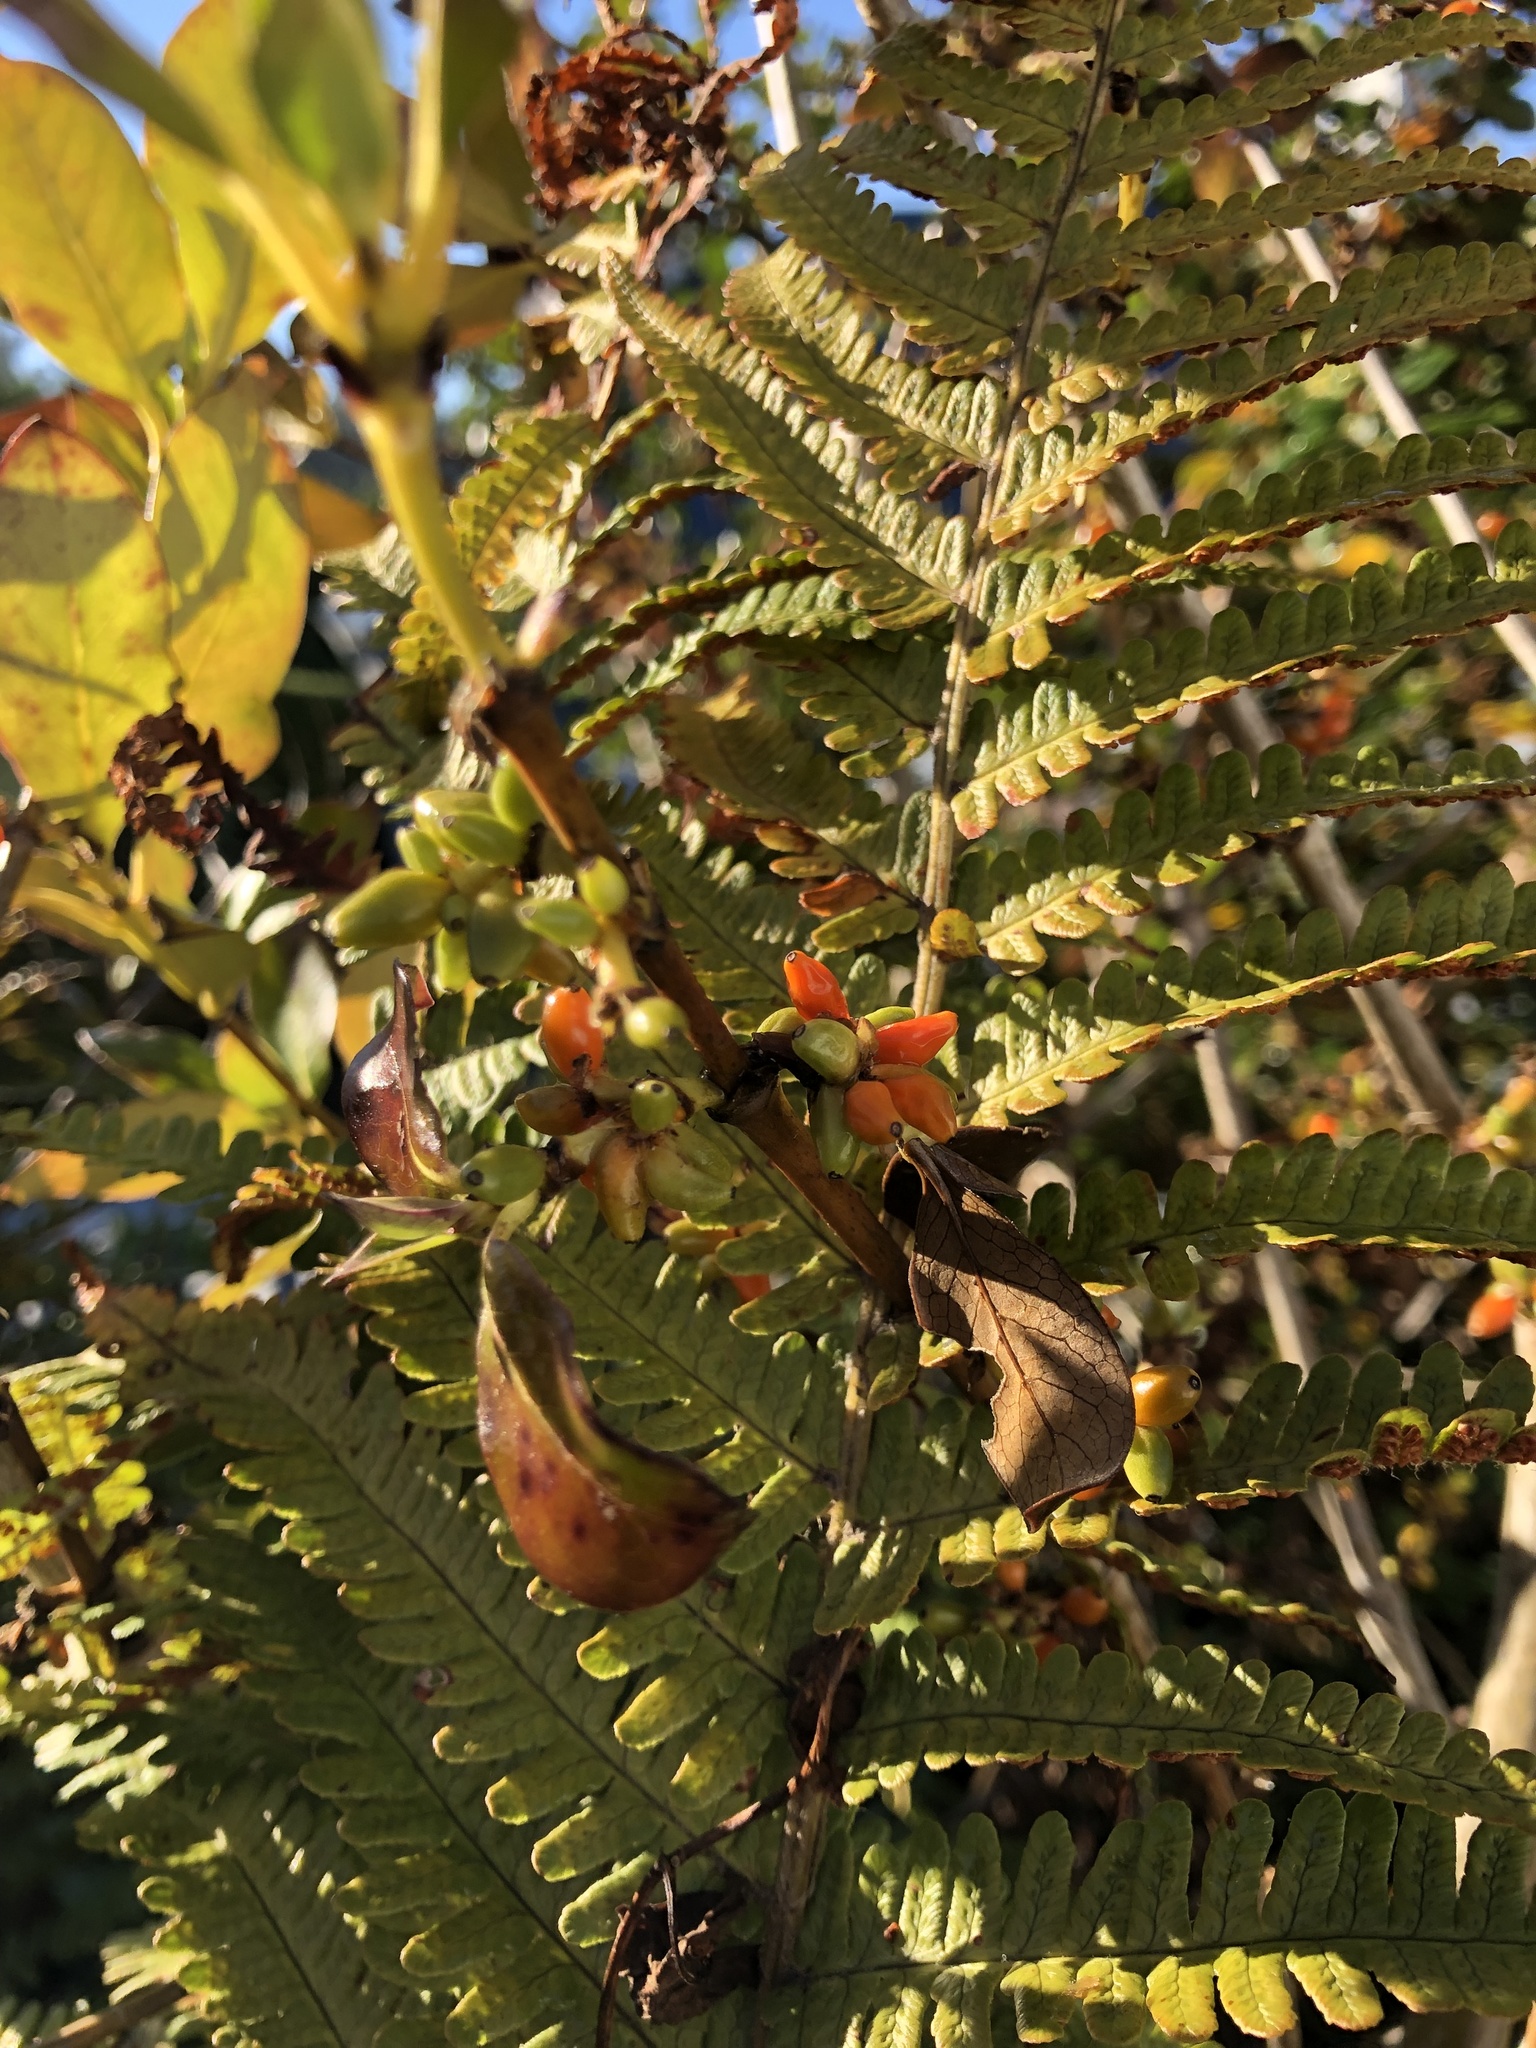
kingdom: Plantae
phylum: Tracheophyta
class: Magnoliopsida
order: Gentianales
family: Rubiaceae
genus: Coprosma
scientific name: Coprosma robusta
